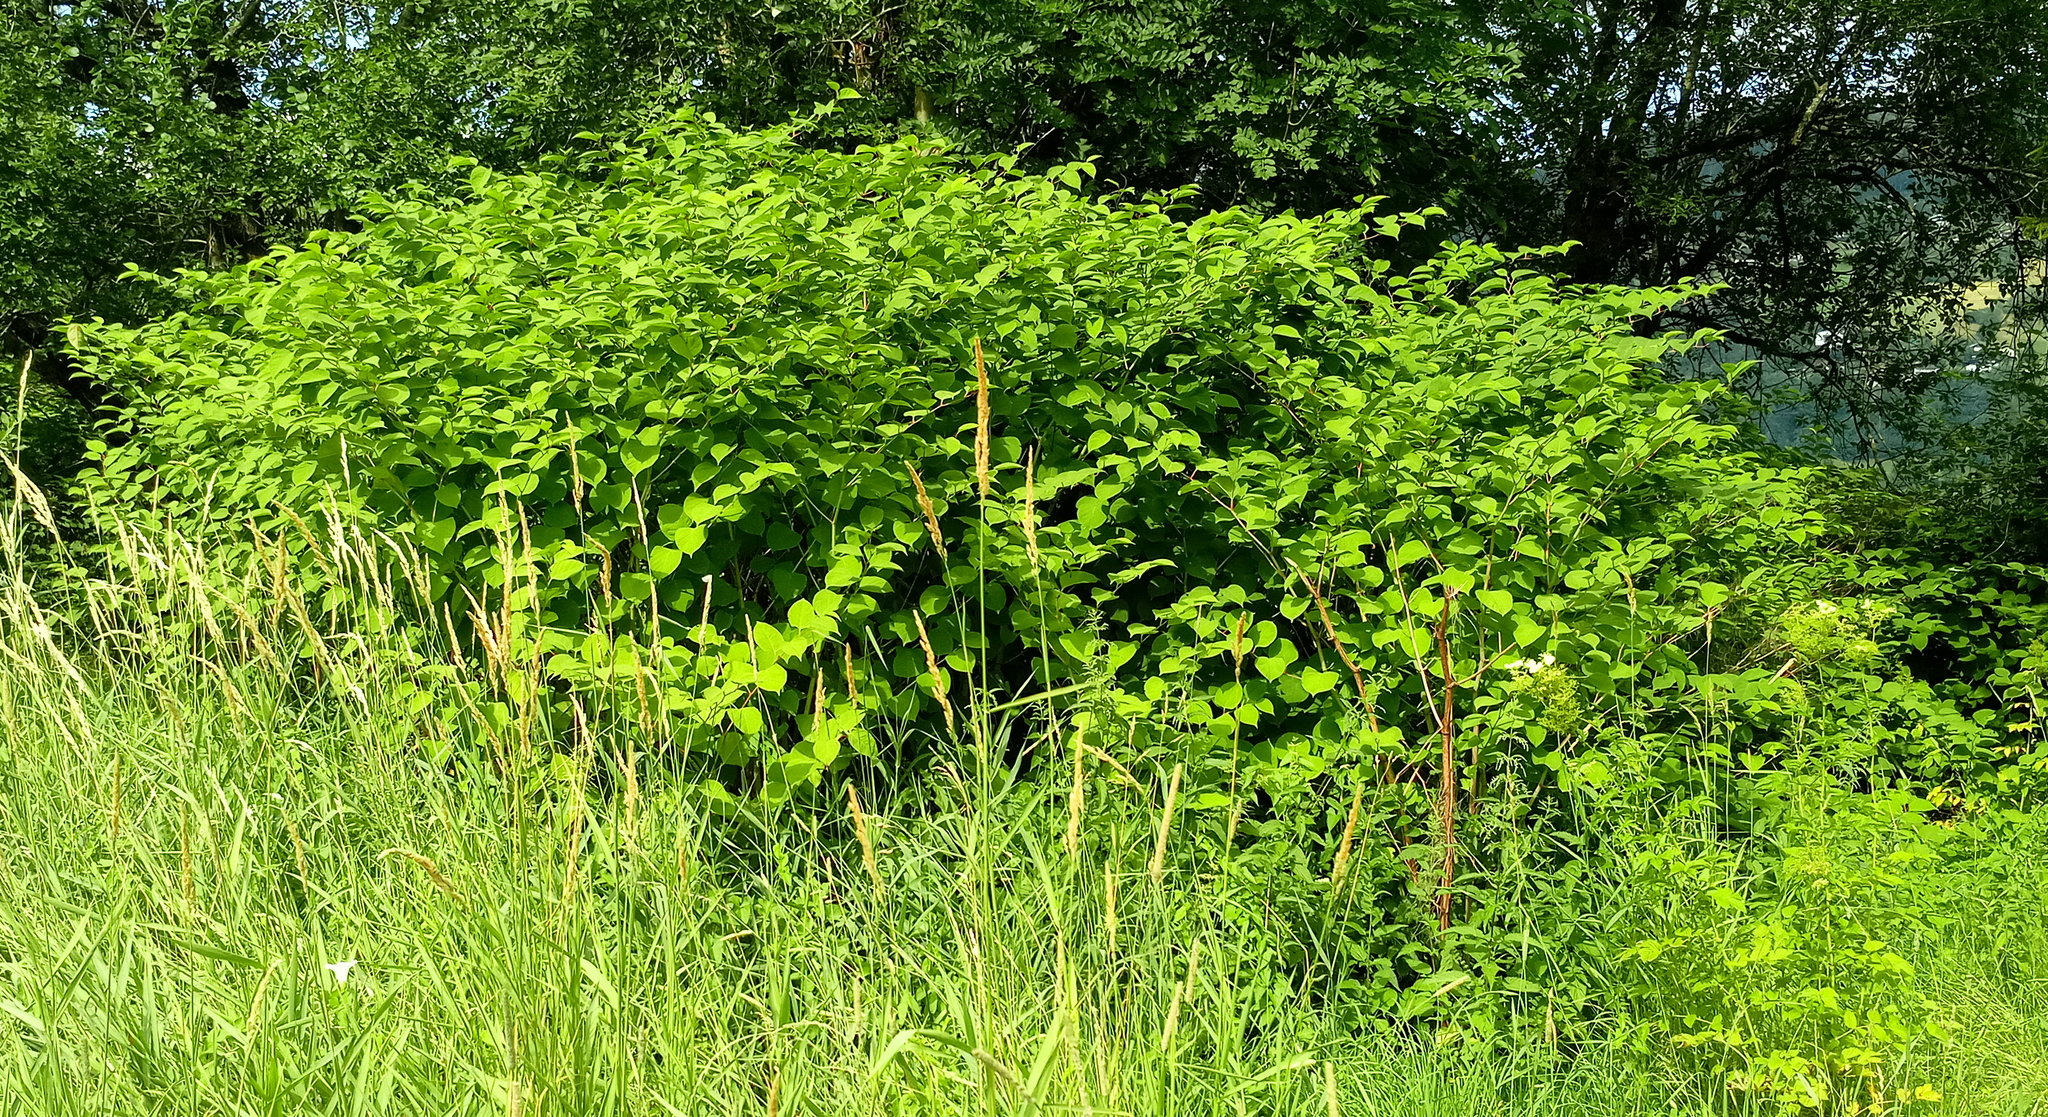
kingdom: Plantae
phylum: Tracheophyta
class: Magnoliopsida
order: Caryophyllales
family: Polygonaceae
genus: Reynoutria
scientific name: Reynoutria bohemica
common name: Bohemian knotweed
